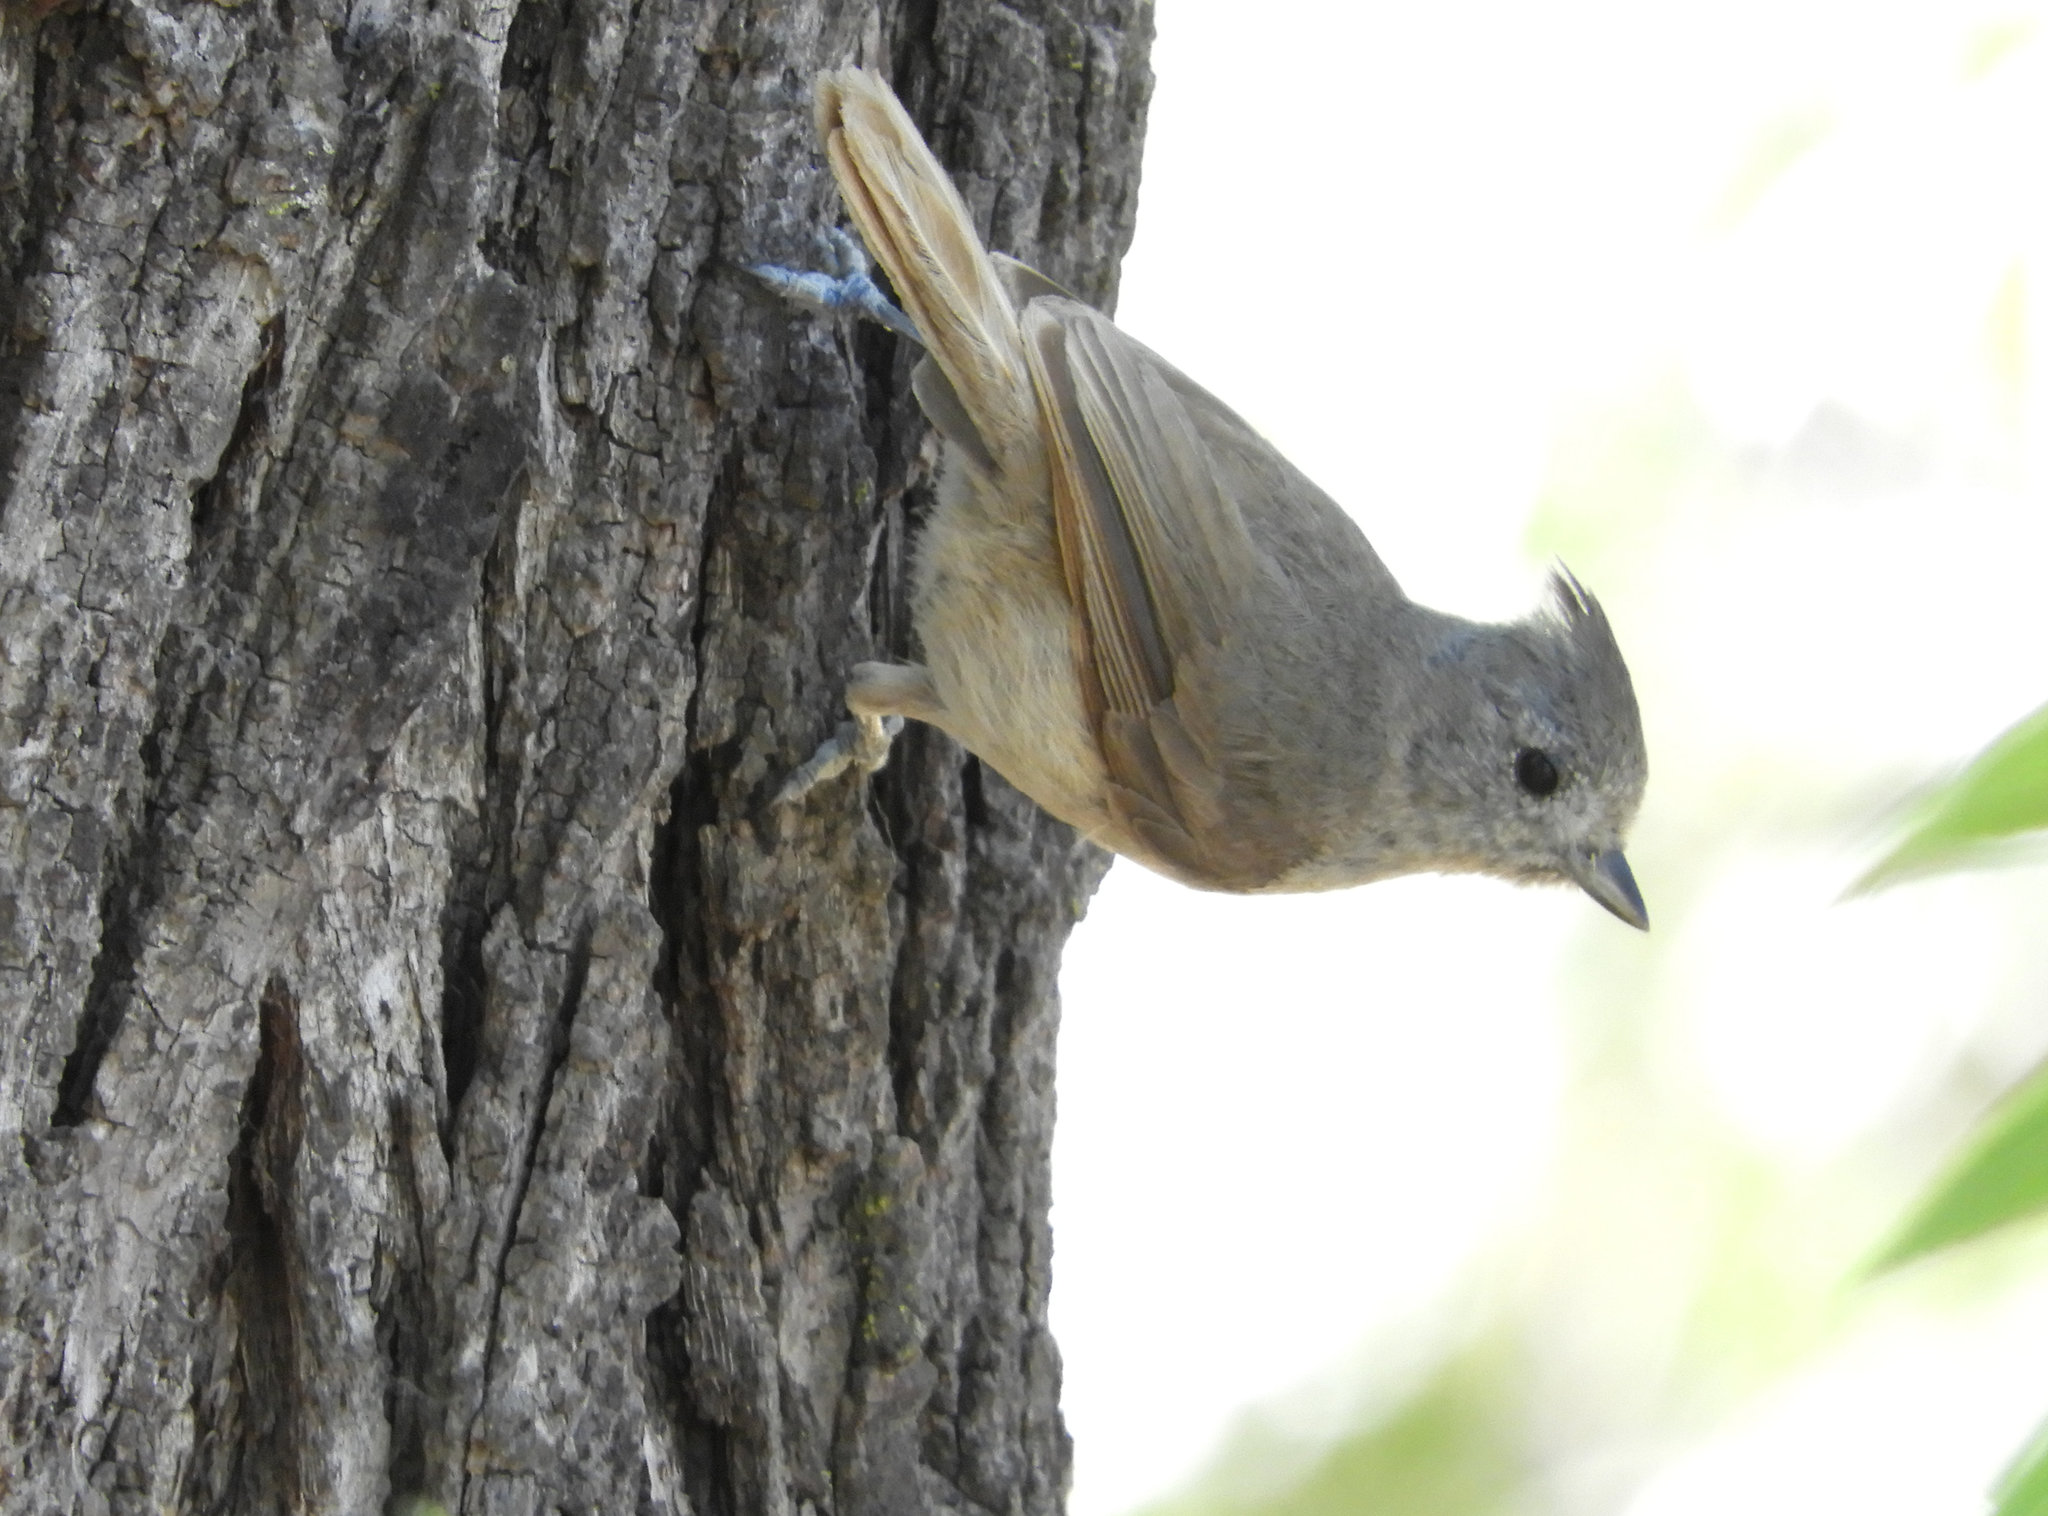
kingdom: Animalia
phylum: Chordata
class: Aves
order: Passeriformes
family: Paridae
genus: Baeolophus
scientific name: Baeolophus inornatus
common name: Oak titmouse
